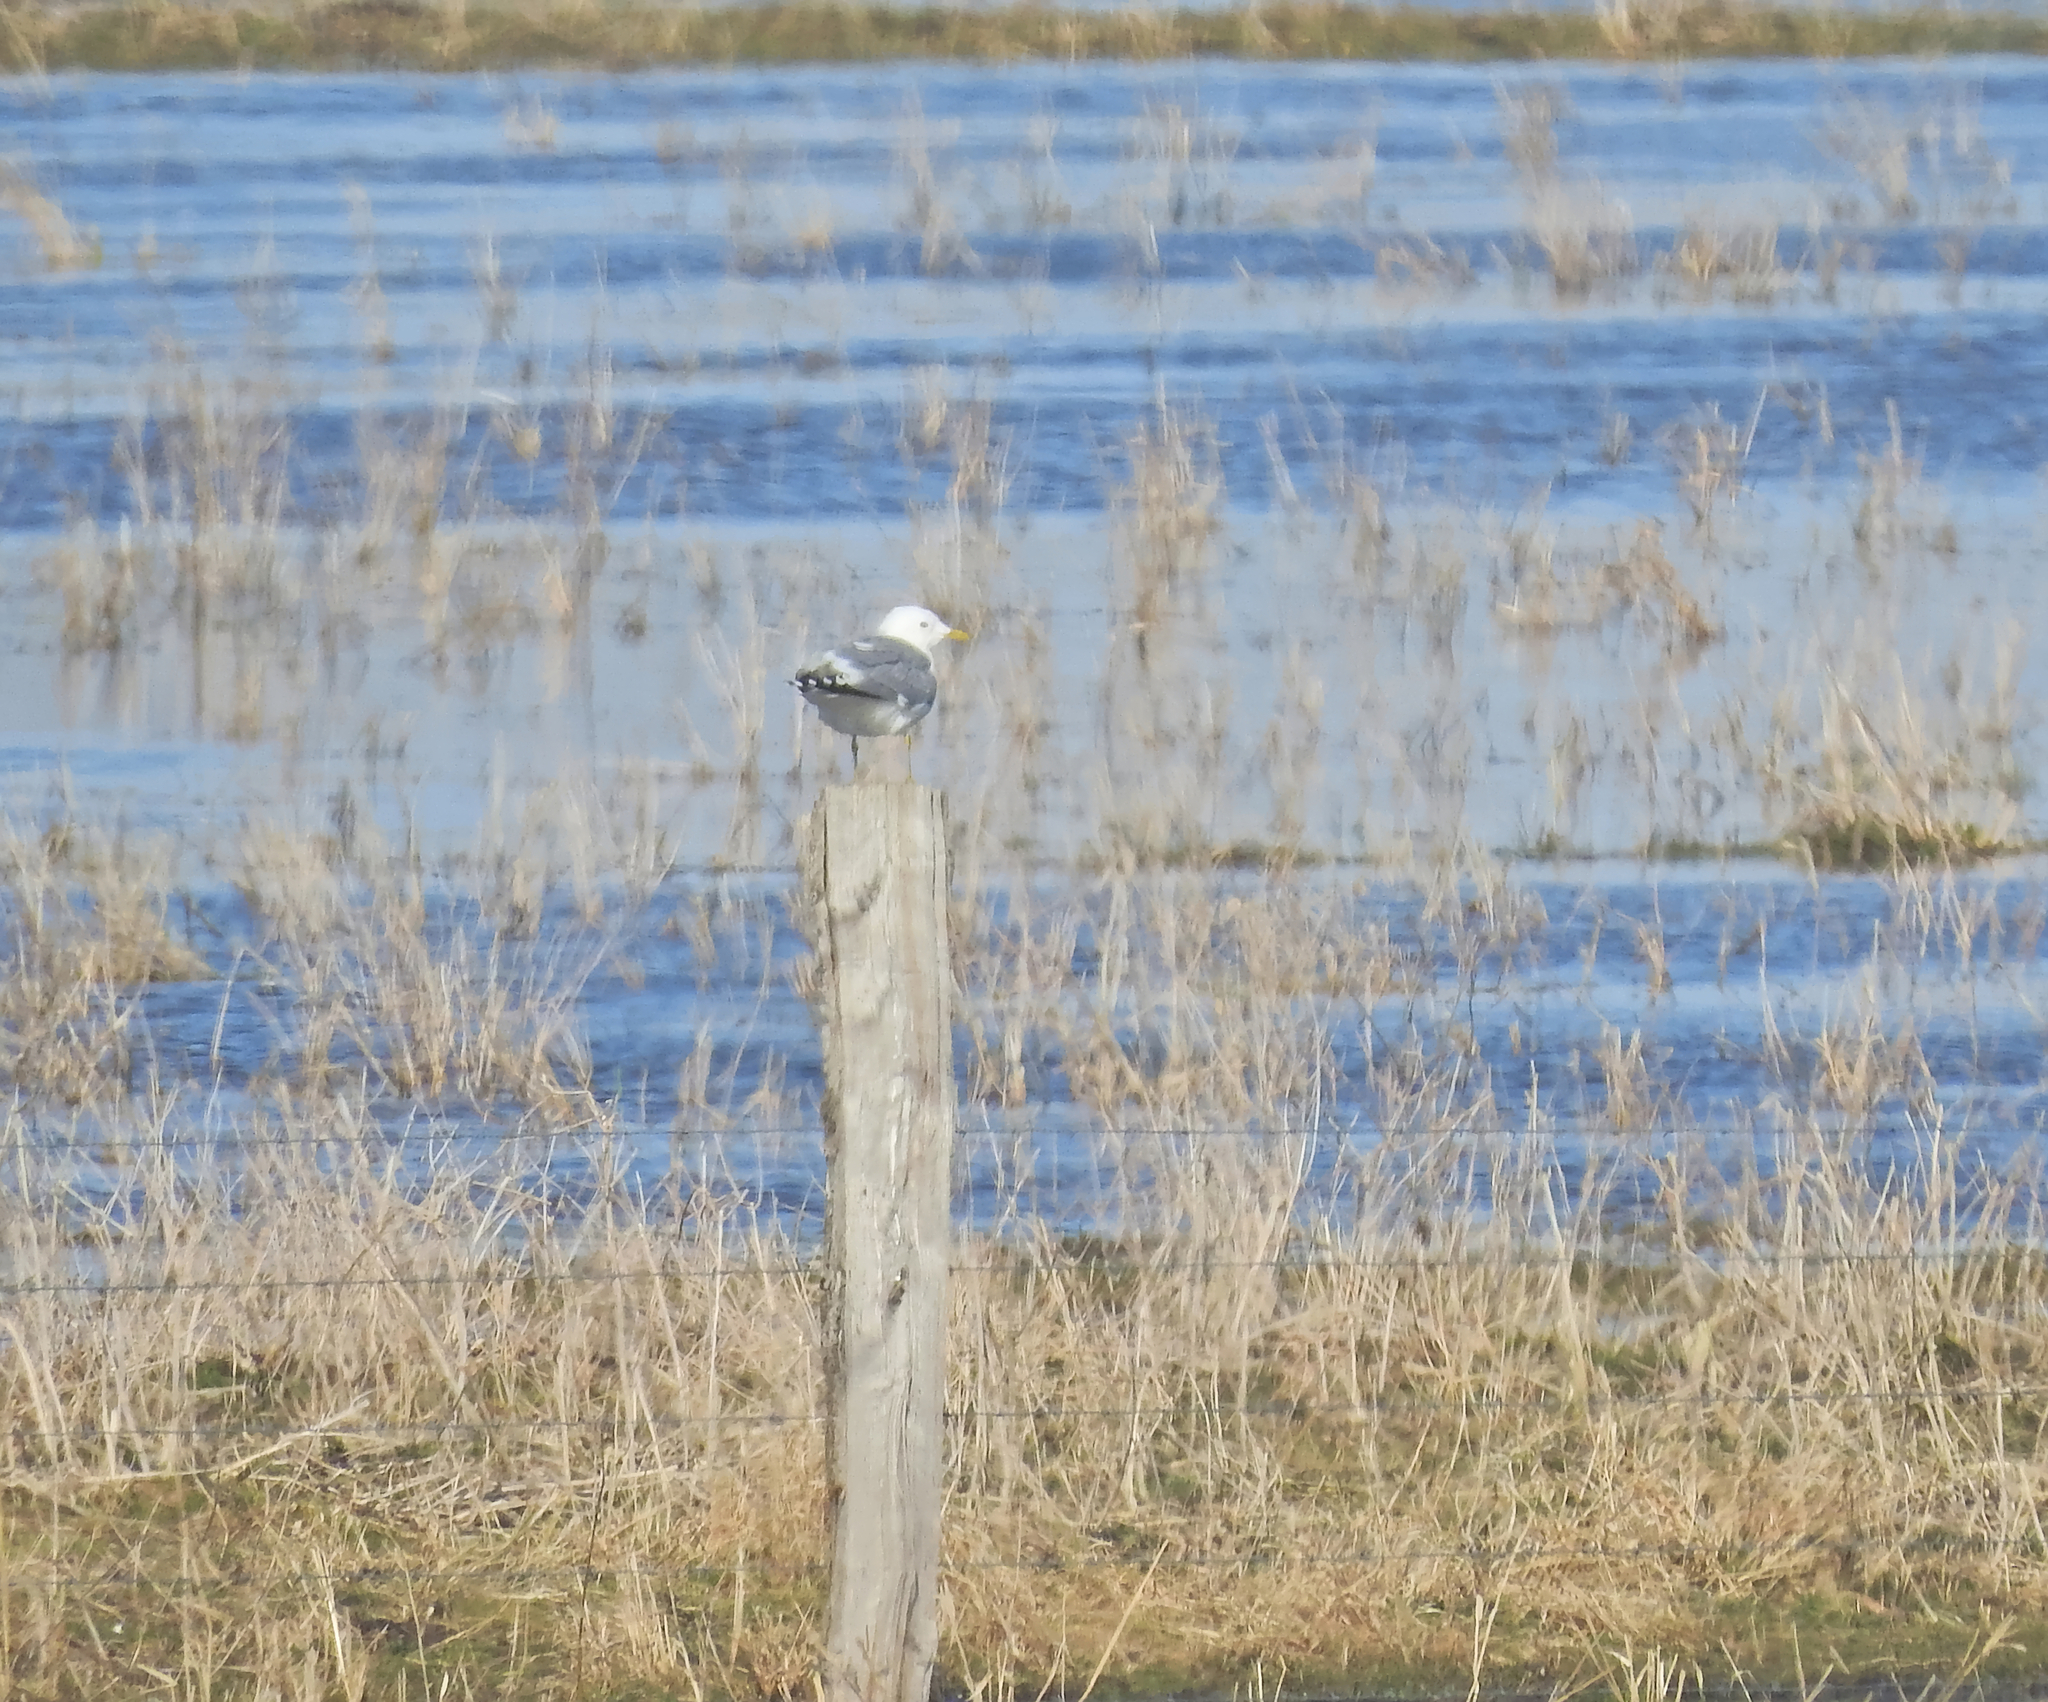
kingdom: Animalia
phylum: Chordata
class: Aves
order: Charadriiformes
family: Laridae
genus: Larus
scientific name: Larus canus
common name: Mew gull
